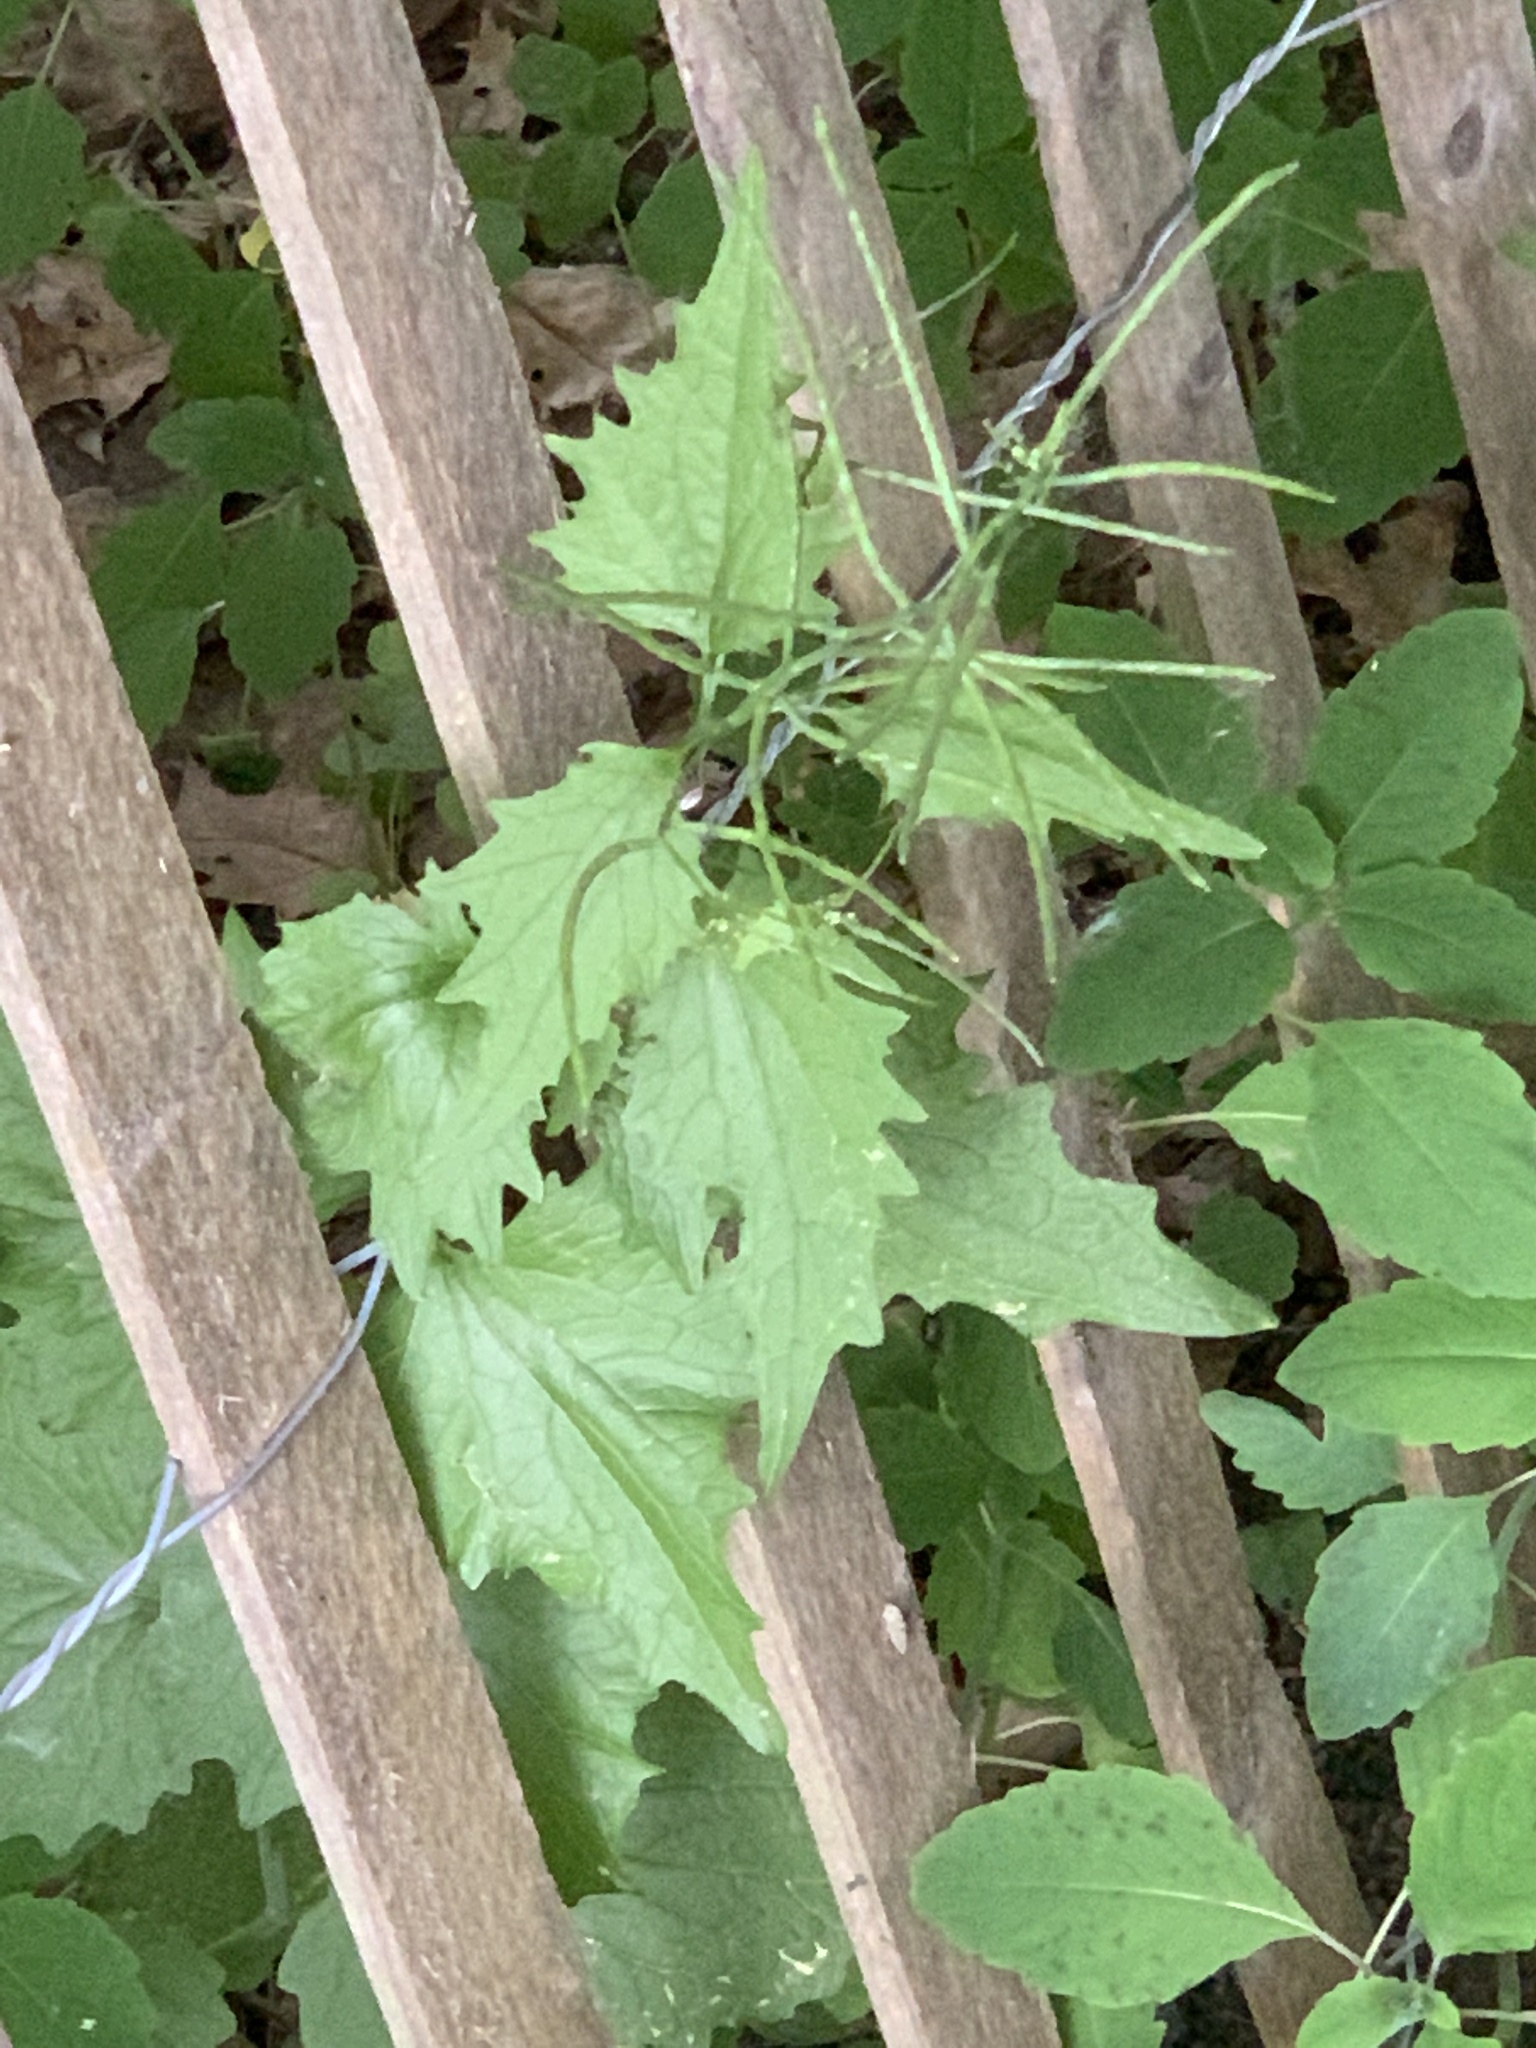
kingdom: Plantae
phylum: Tracheophyta
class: Magnoliopsida
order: Brassicales
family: Brassicaceae
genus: Alliaria
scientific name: Alliaria petiolata
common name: Garlic mustard
